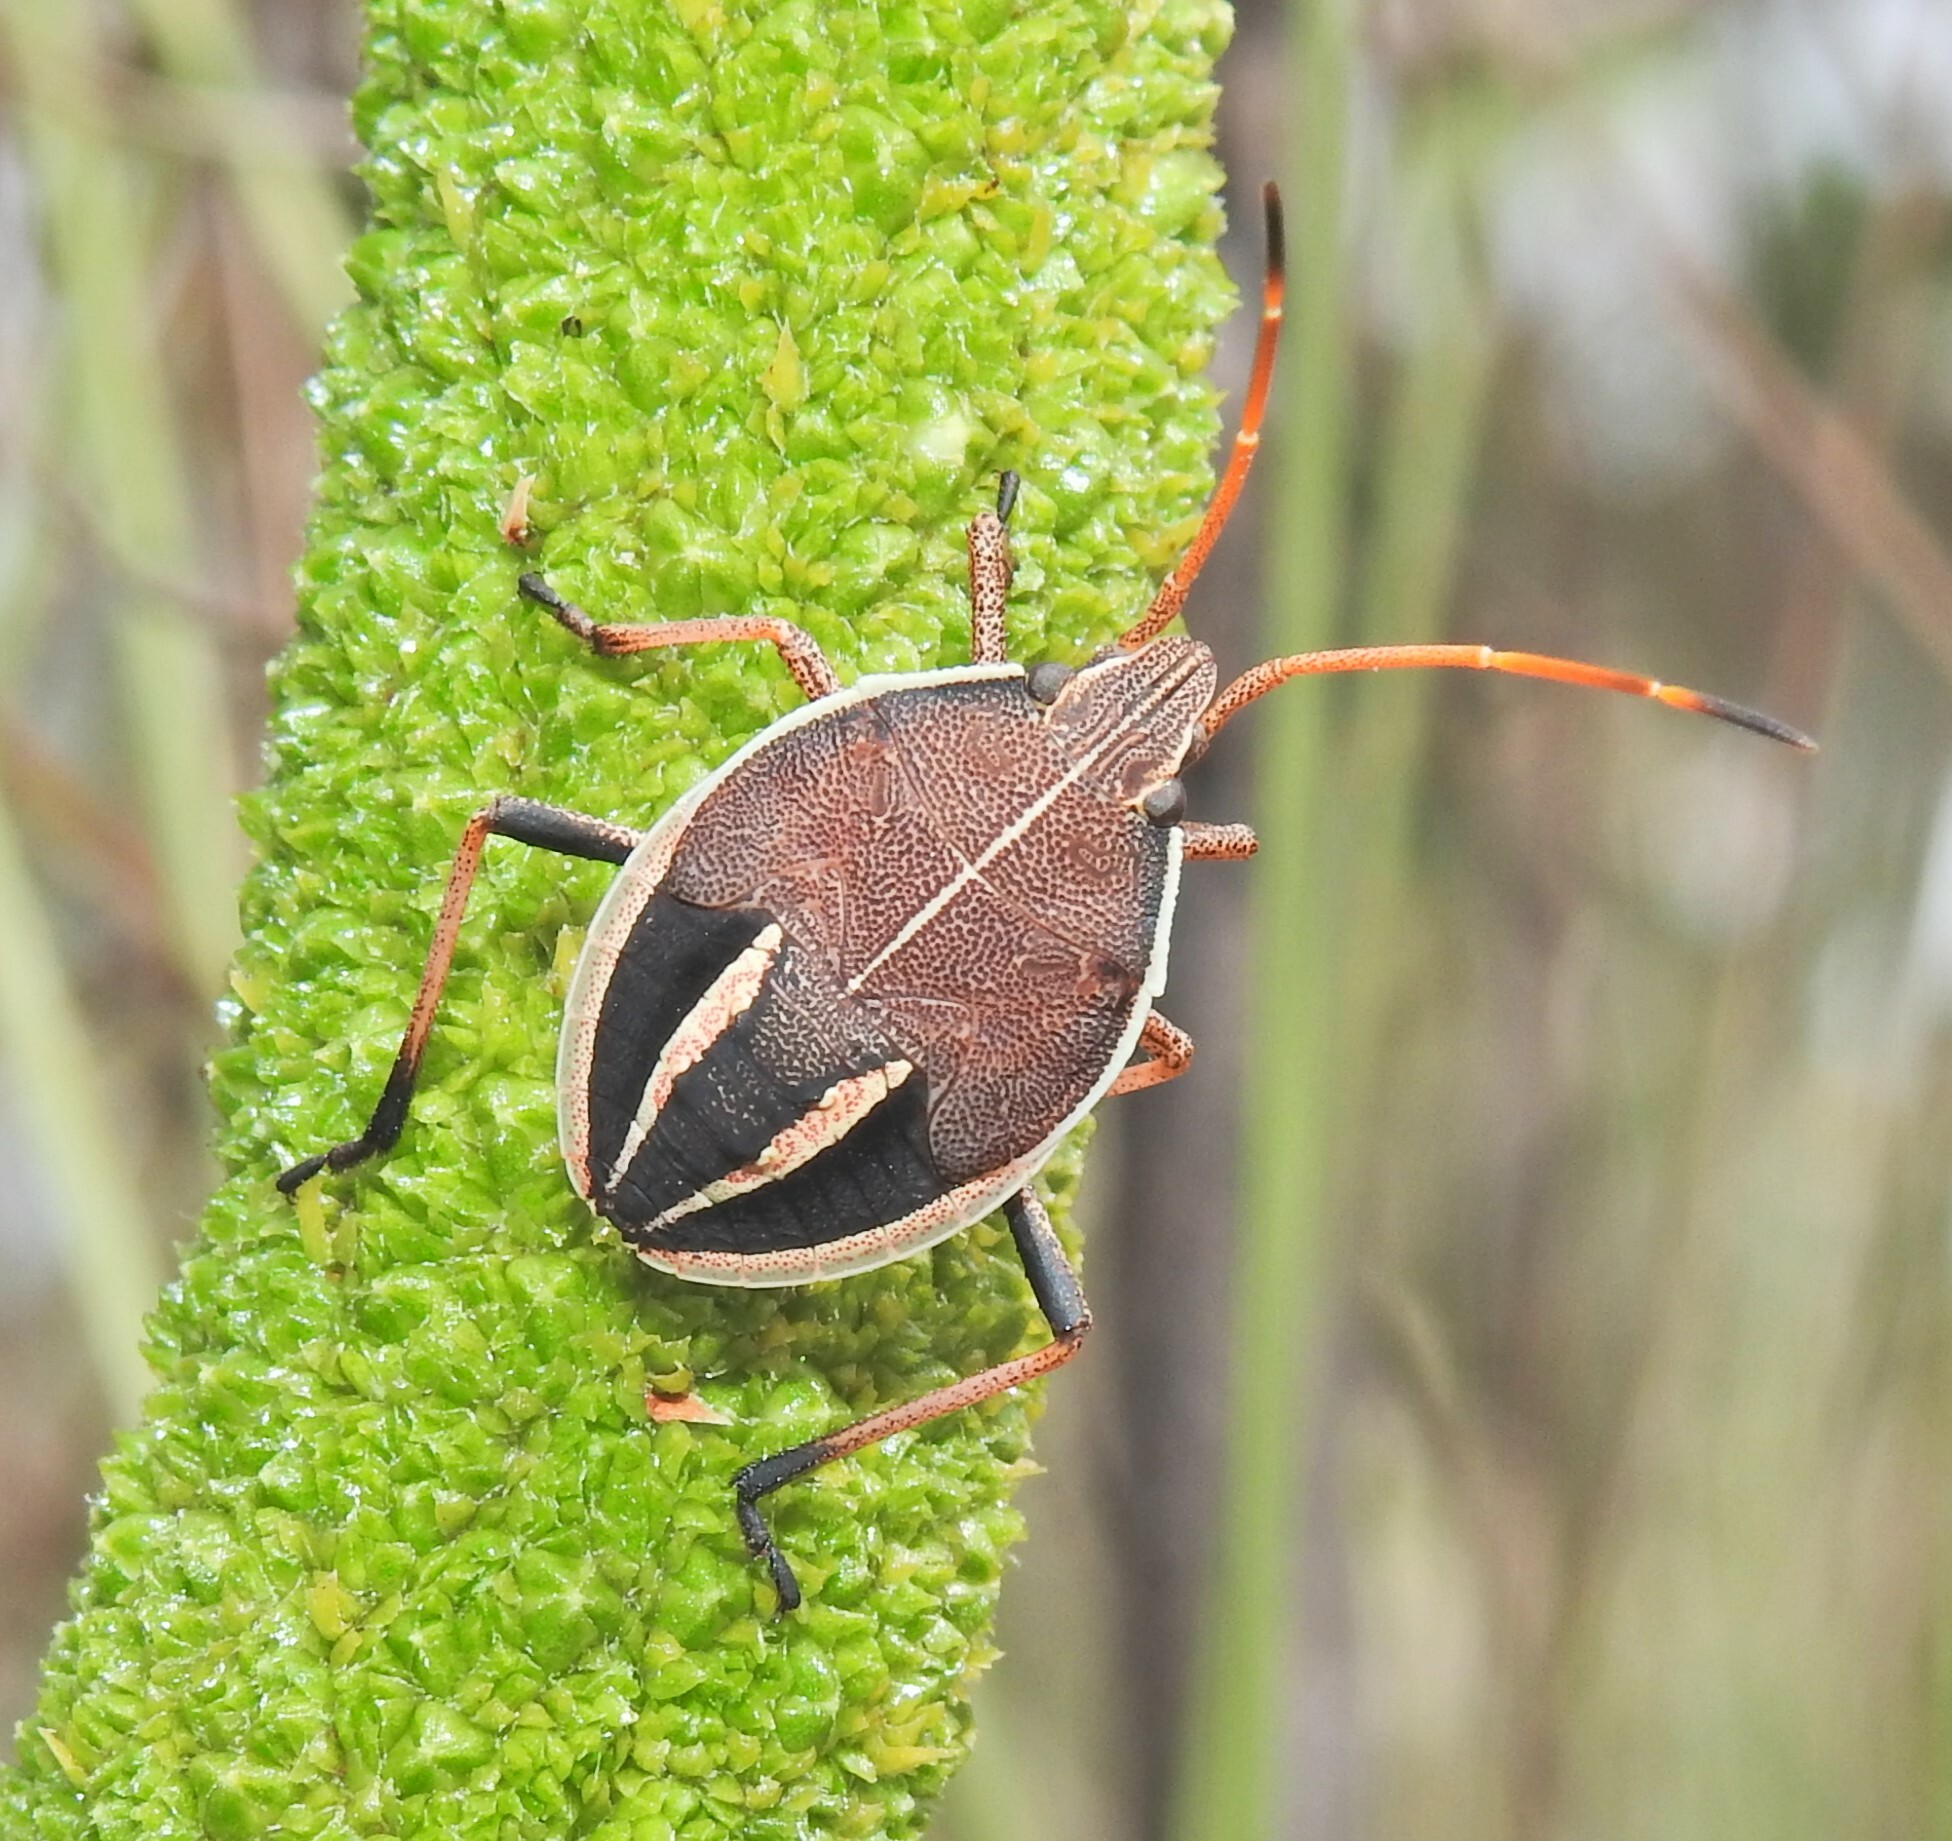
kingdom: Animalia
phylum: Arthropoda
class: Insecta
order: Hemiptera
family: Pentatomidae
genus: Poecilometis
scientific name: Poecilometis
